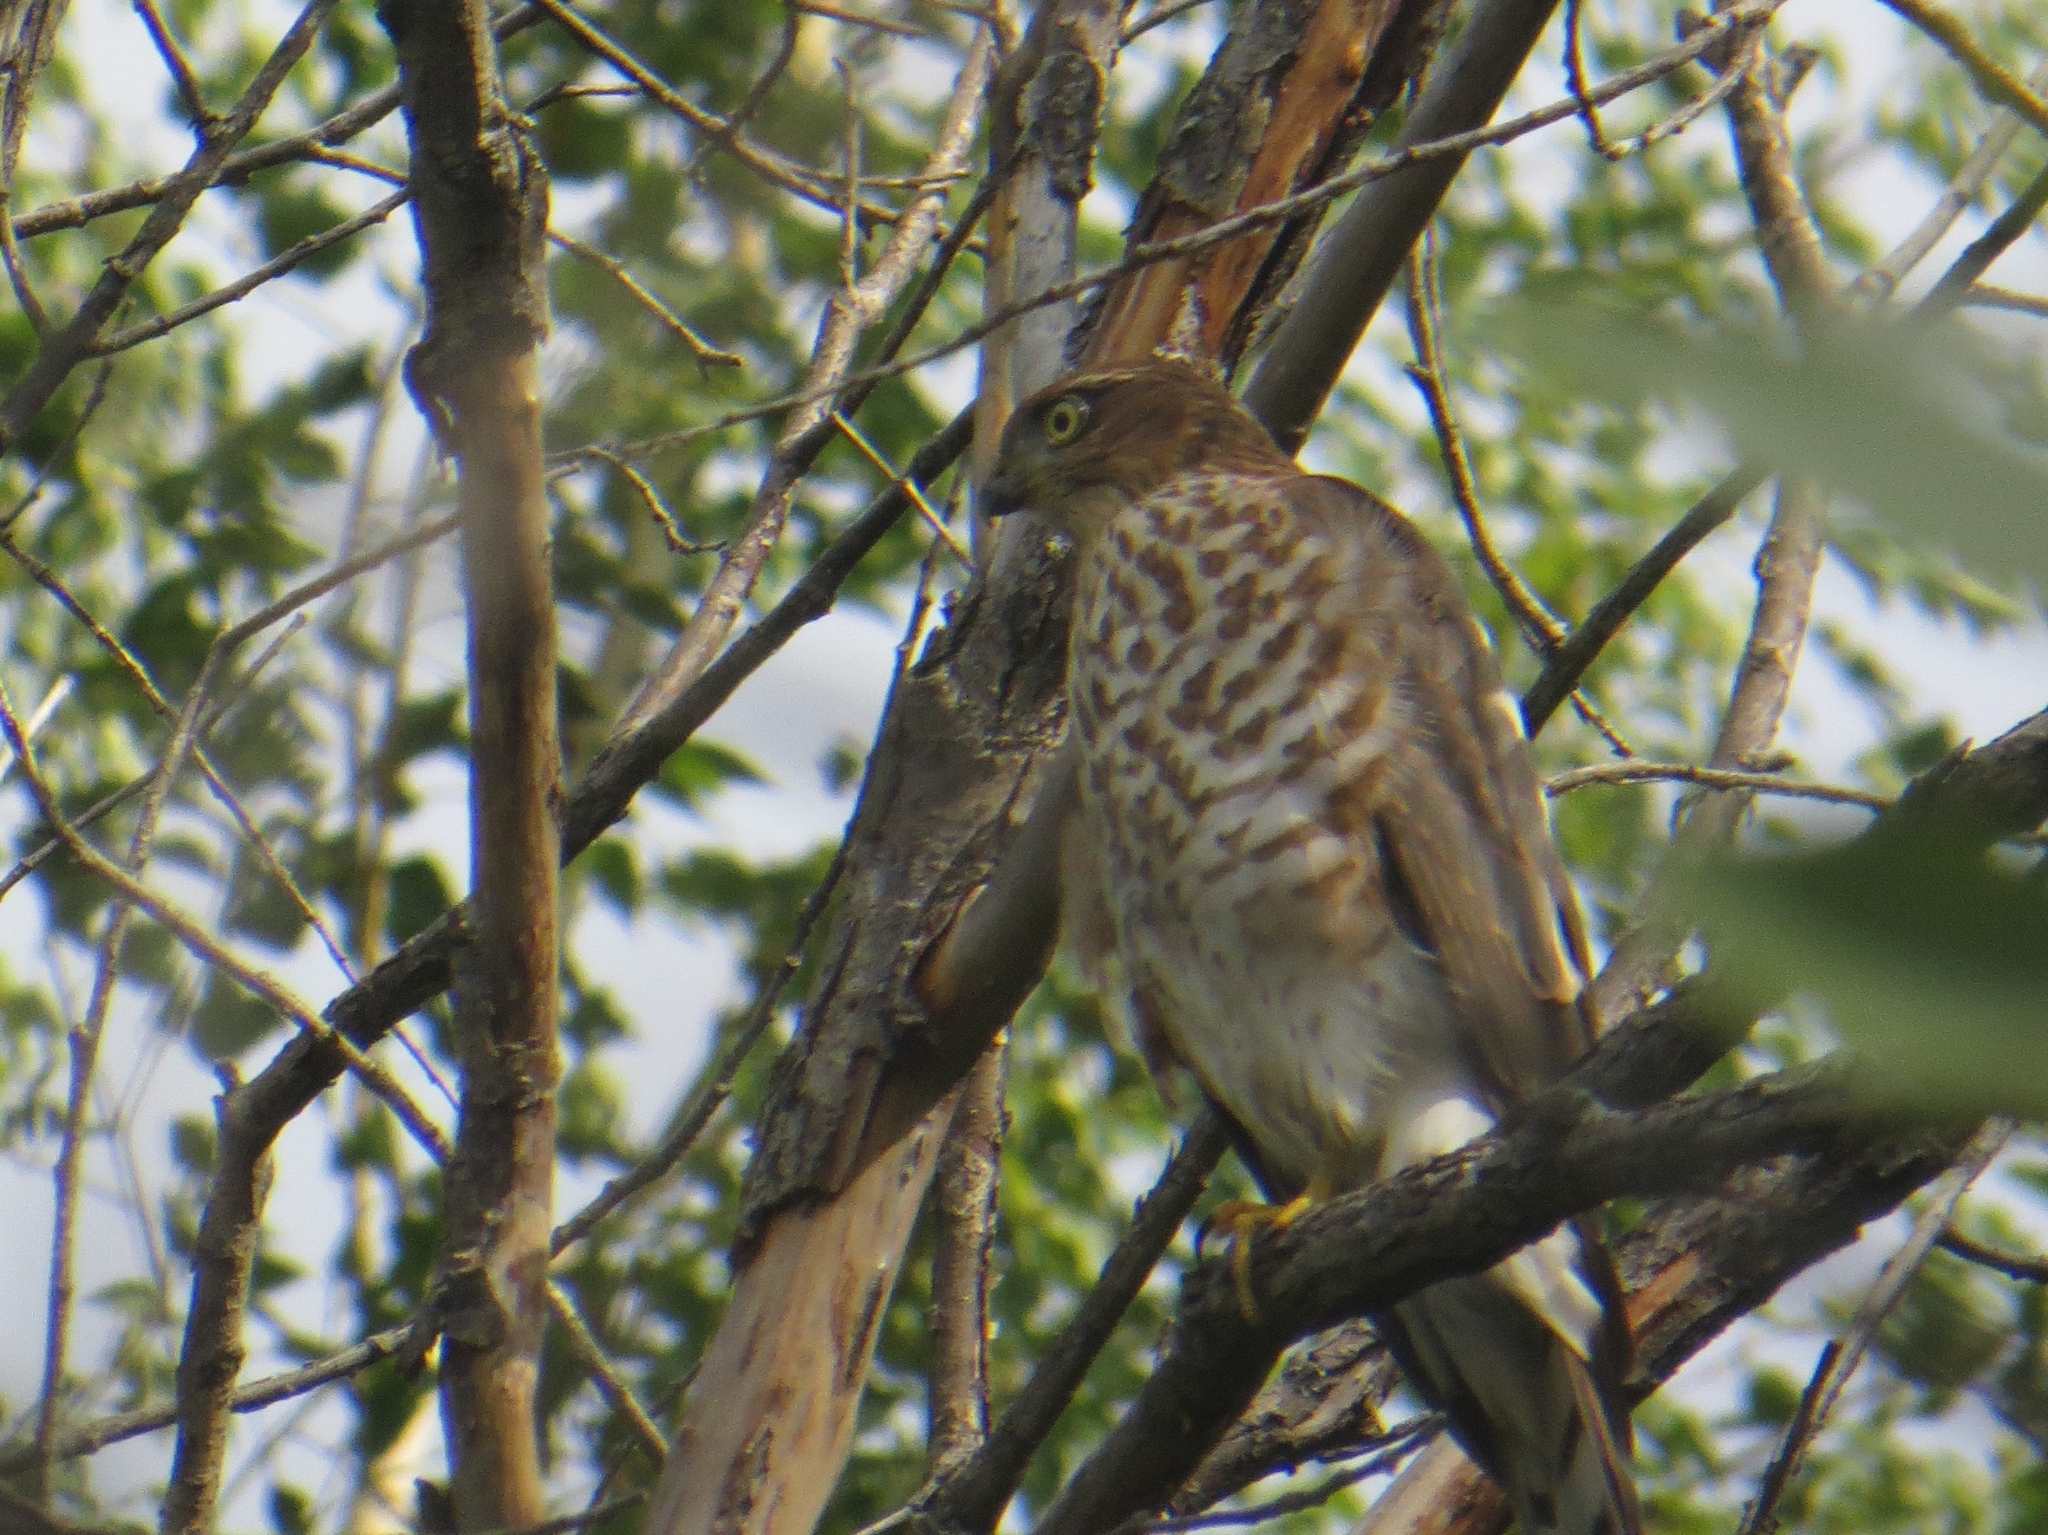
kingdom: Animalia
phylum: Chordata
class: Aves
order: Accipitriformes
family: Accipitridae
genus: Accipiter
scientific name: Accipiter nisus
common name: Eurasian sparrowhawk
